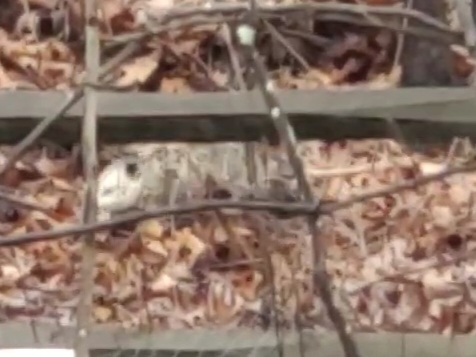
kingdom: Animalia
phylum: Chordata
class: Mammalia
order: Didelphimorphia
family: Didelphidae
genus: Didelphis
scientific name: Didelphis virginiana
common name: Virginia opossum
